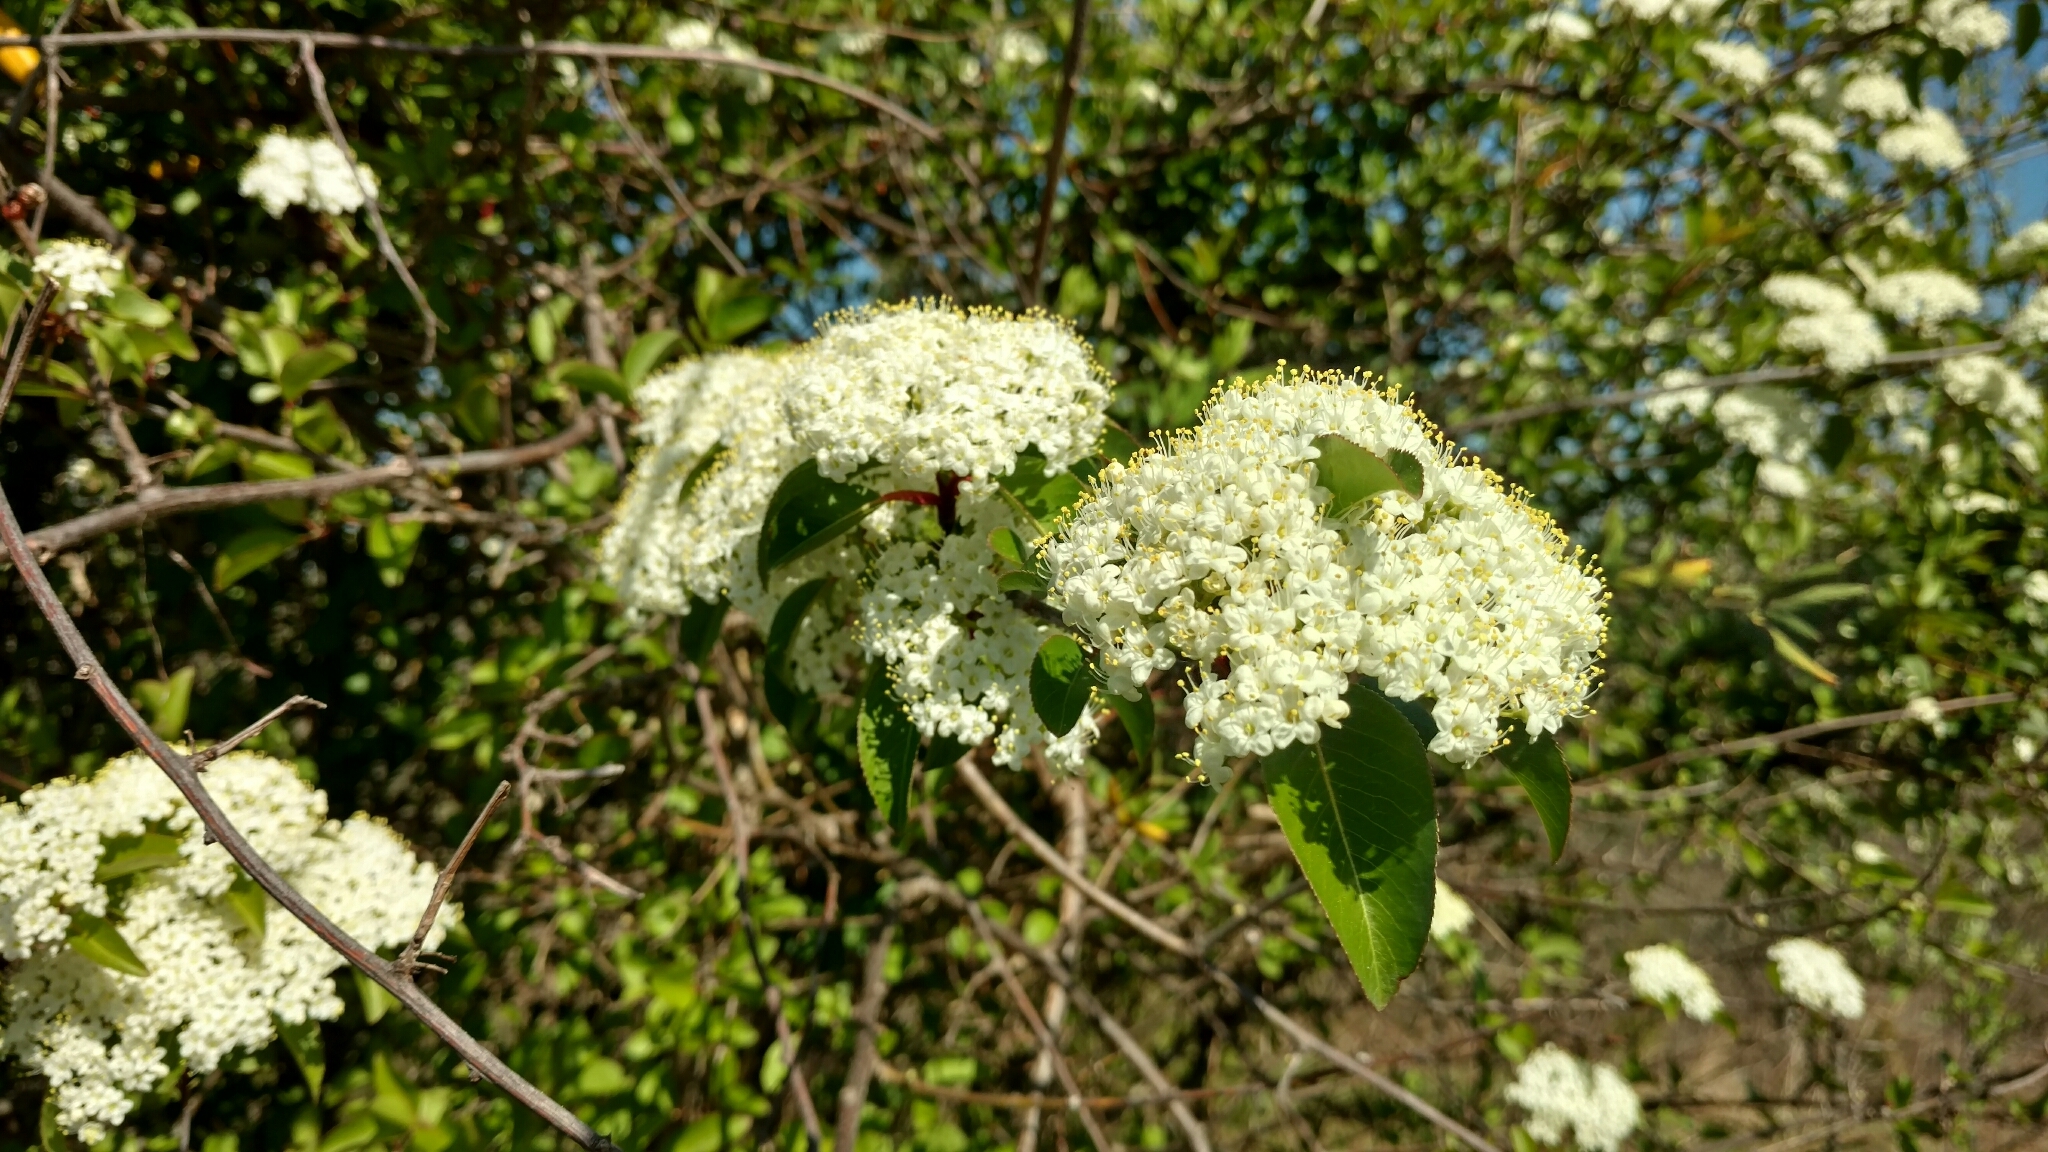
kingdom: Plantae
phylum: Tracheophyta
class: Magnoliopsida
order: Dipsacales
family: Viburnaceae
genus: Viburnum
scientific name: Viburnum prunifolium
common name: Black haw
